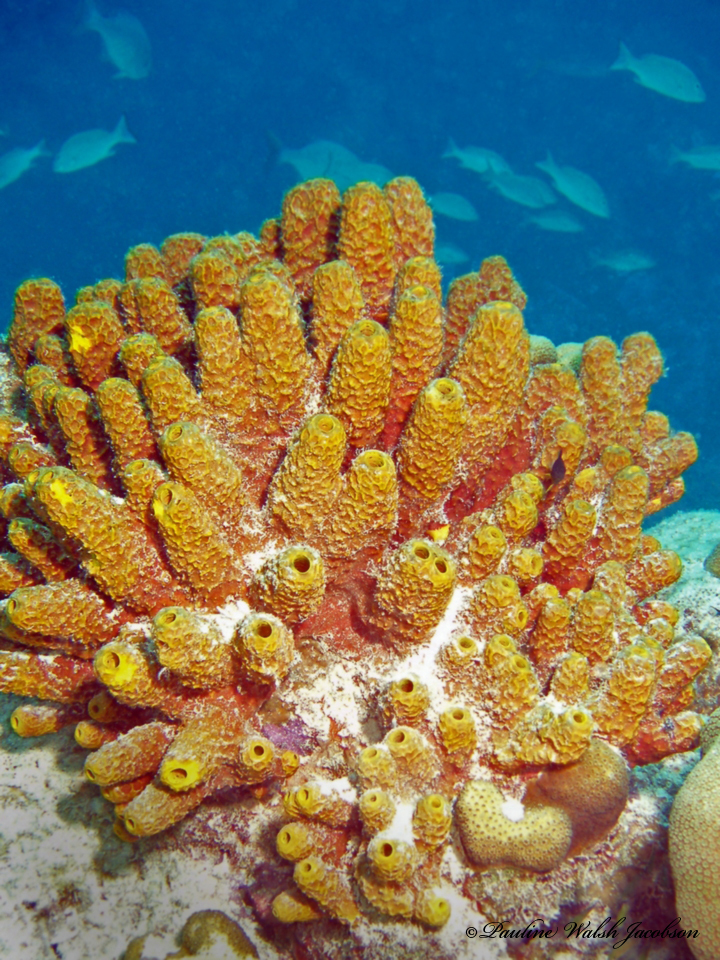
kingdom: Animalia
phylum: Porifera
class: Demospongiae
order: Verongiida
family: Aplysinidae
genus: Verongula
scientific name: Verongula rigida
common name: Pitted sponge
